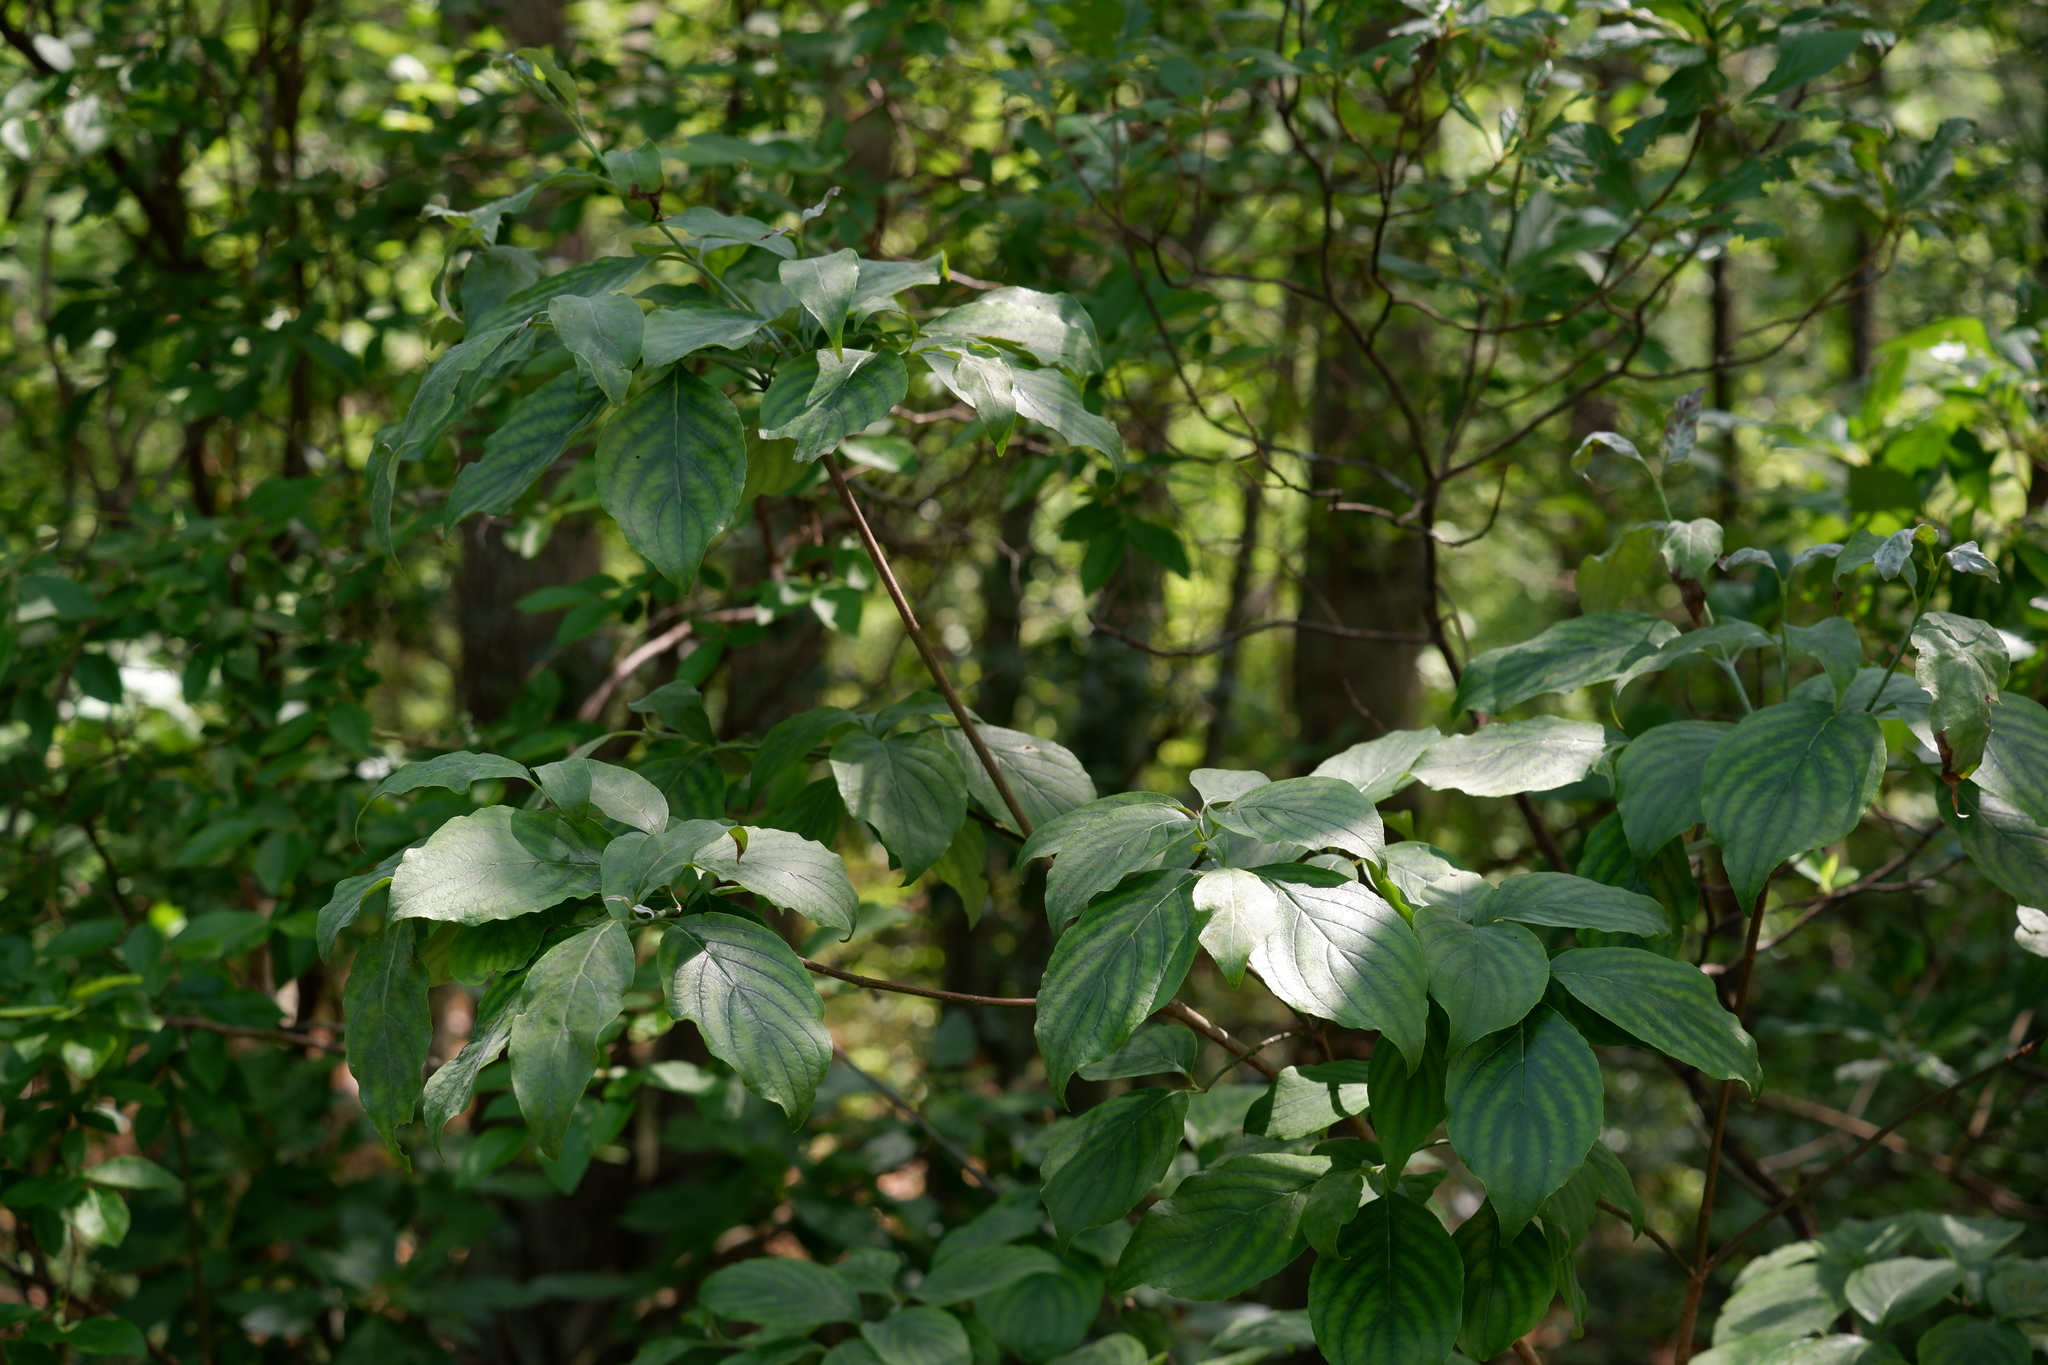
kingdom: Plantae
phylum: Tracheophyta
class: Magnoliopsida
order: Cornales
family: Cornaceae
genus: Cornus
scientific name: Cornus florida
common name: Flowering dogwood
